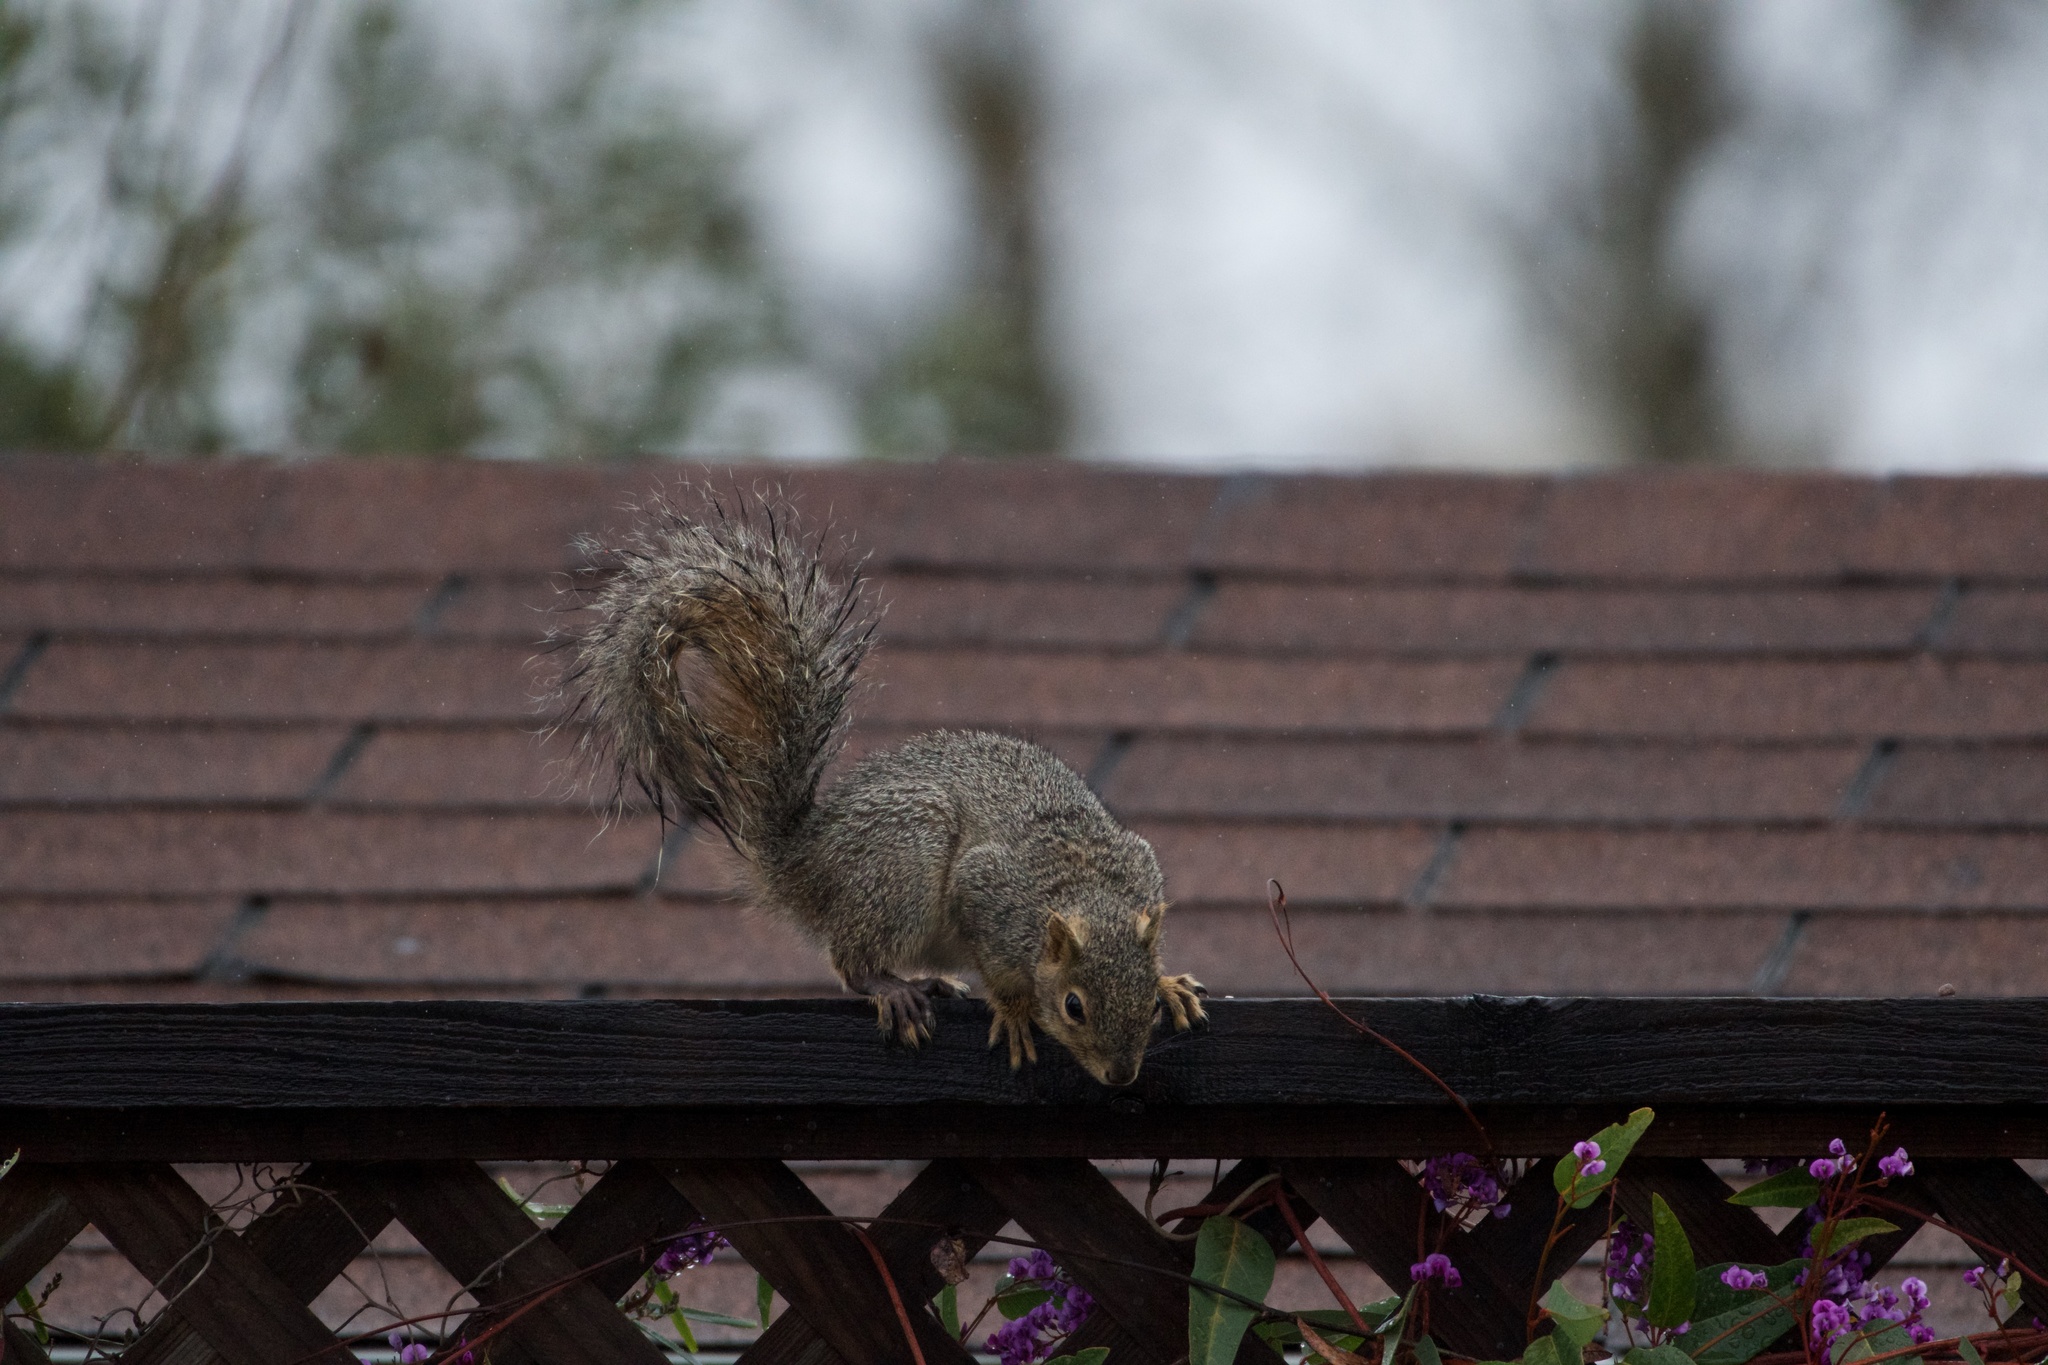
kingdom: Animalia
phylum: Chordata
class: Mammalia
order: Rodentia
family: Sciuridae
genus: Sciurus
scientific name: Sciurus niger
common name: Fox squirrel
